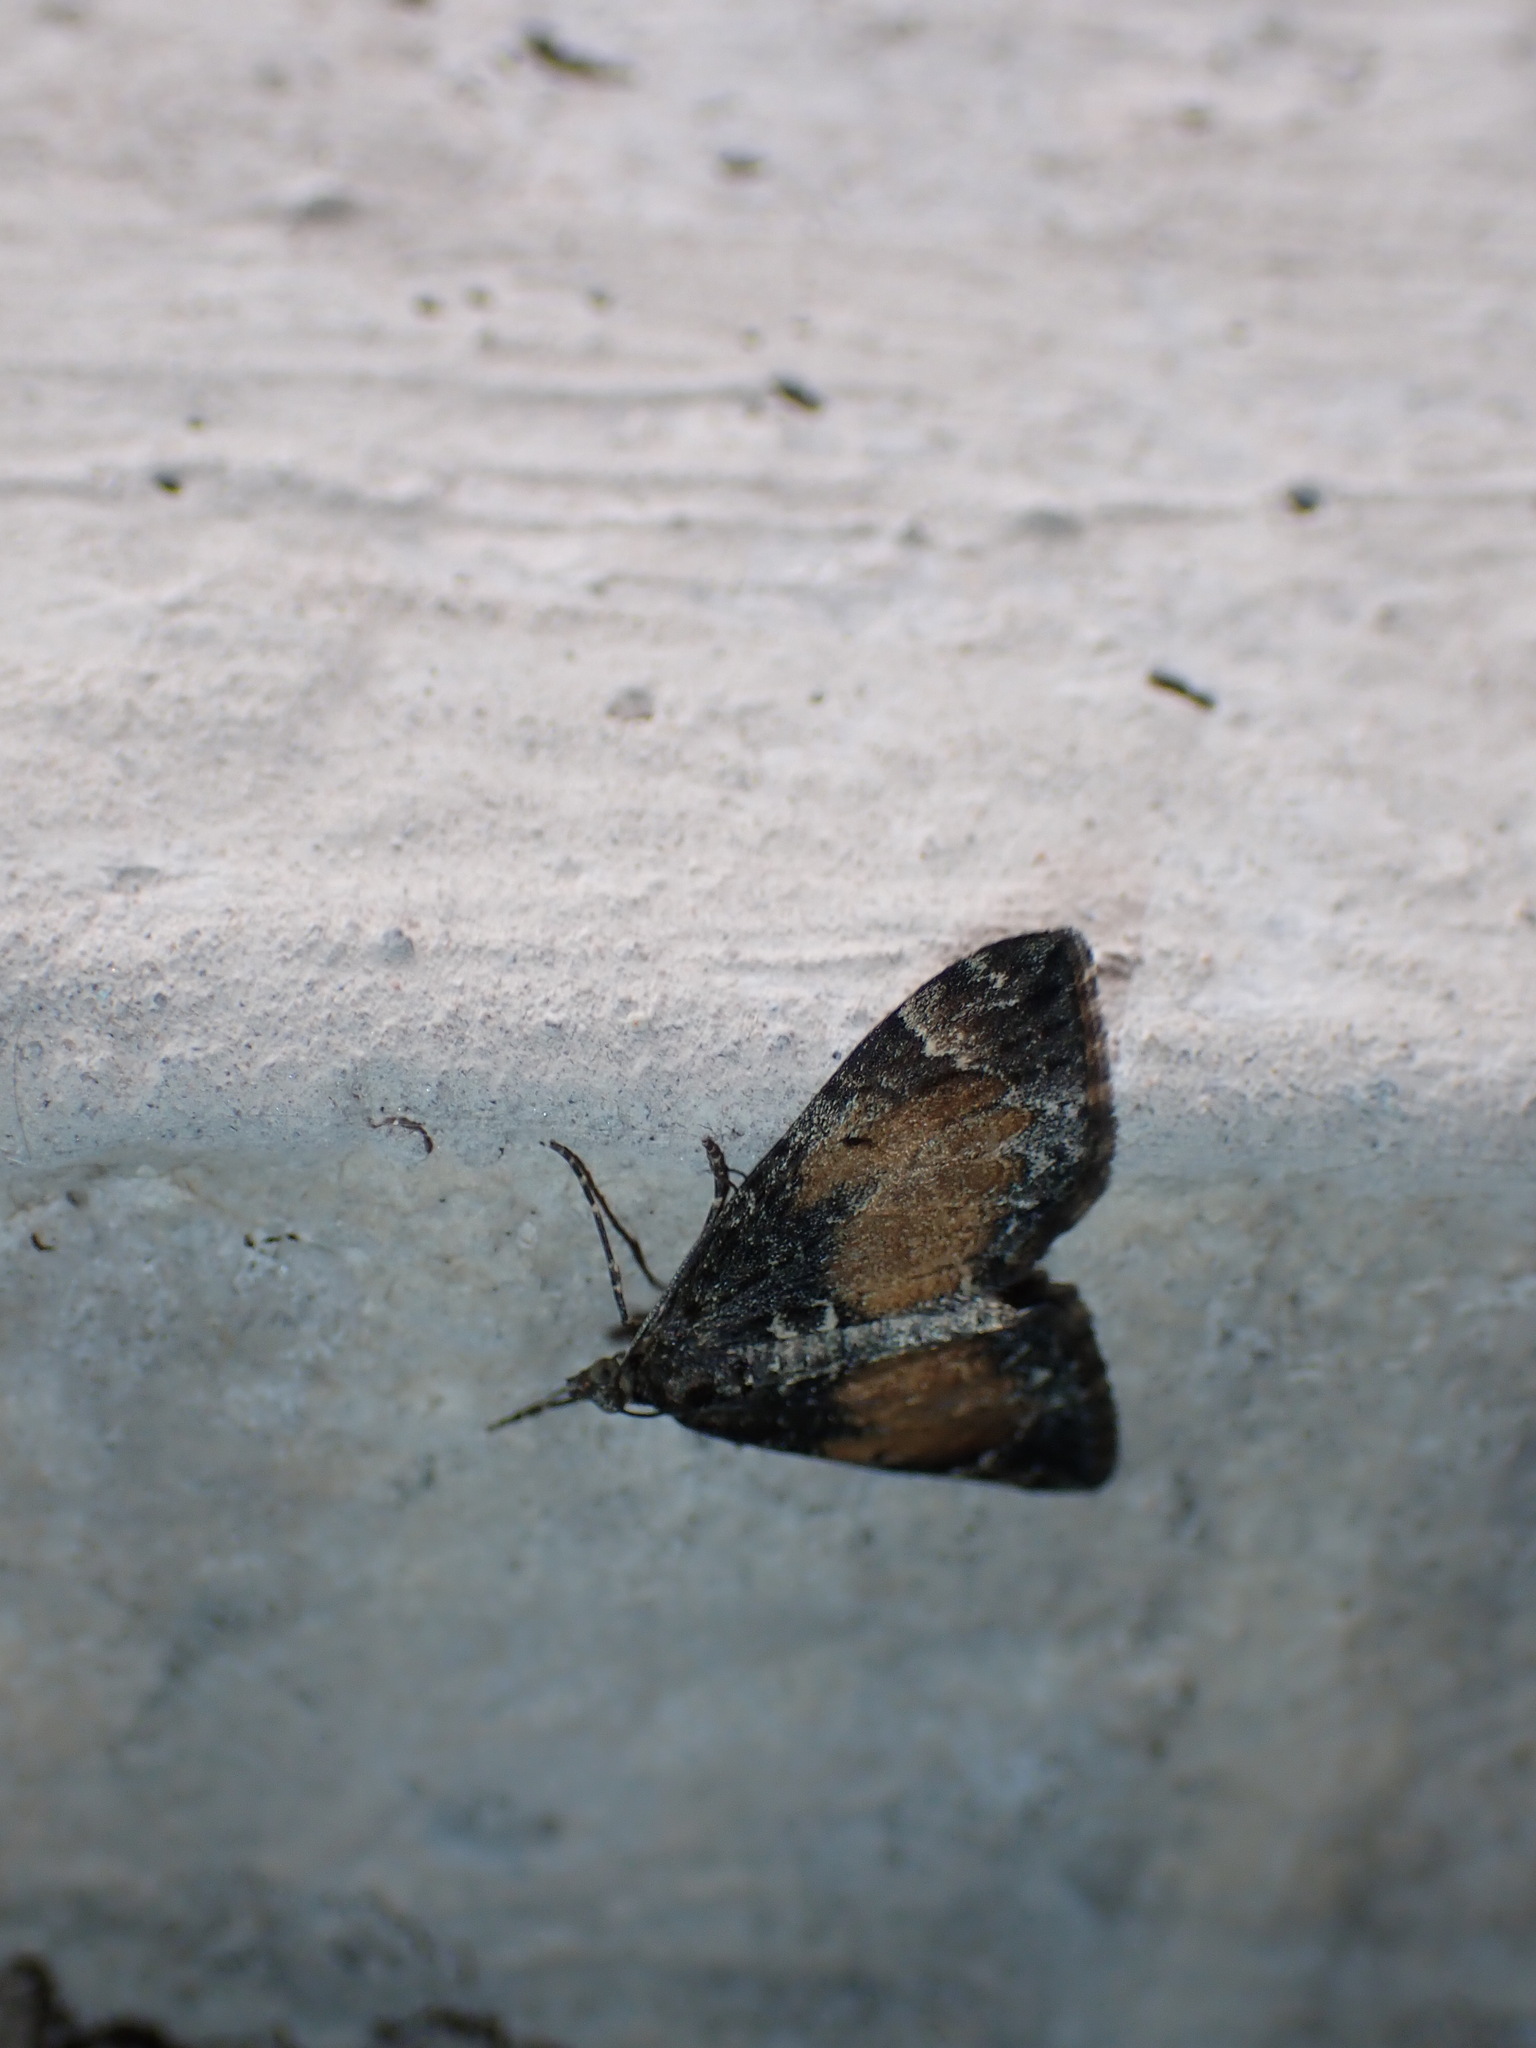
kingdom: Animalia
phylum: Arthropoda
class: Insecta
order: Lepidoptera
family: Geometridae
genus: Dysstroma
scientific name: Dysstroma truncata
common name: Common marbled carpet
